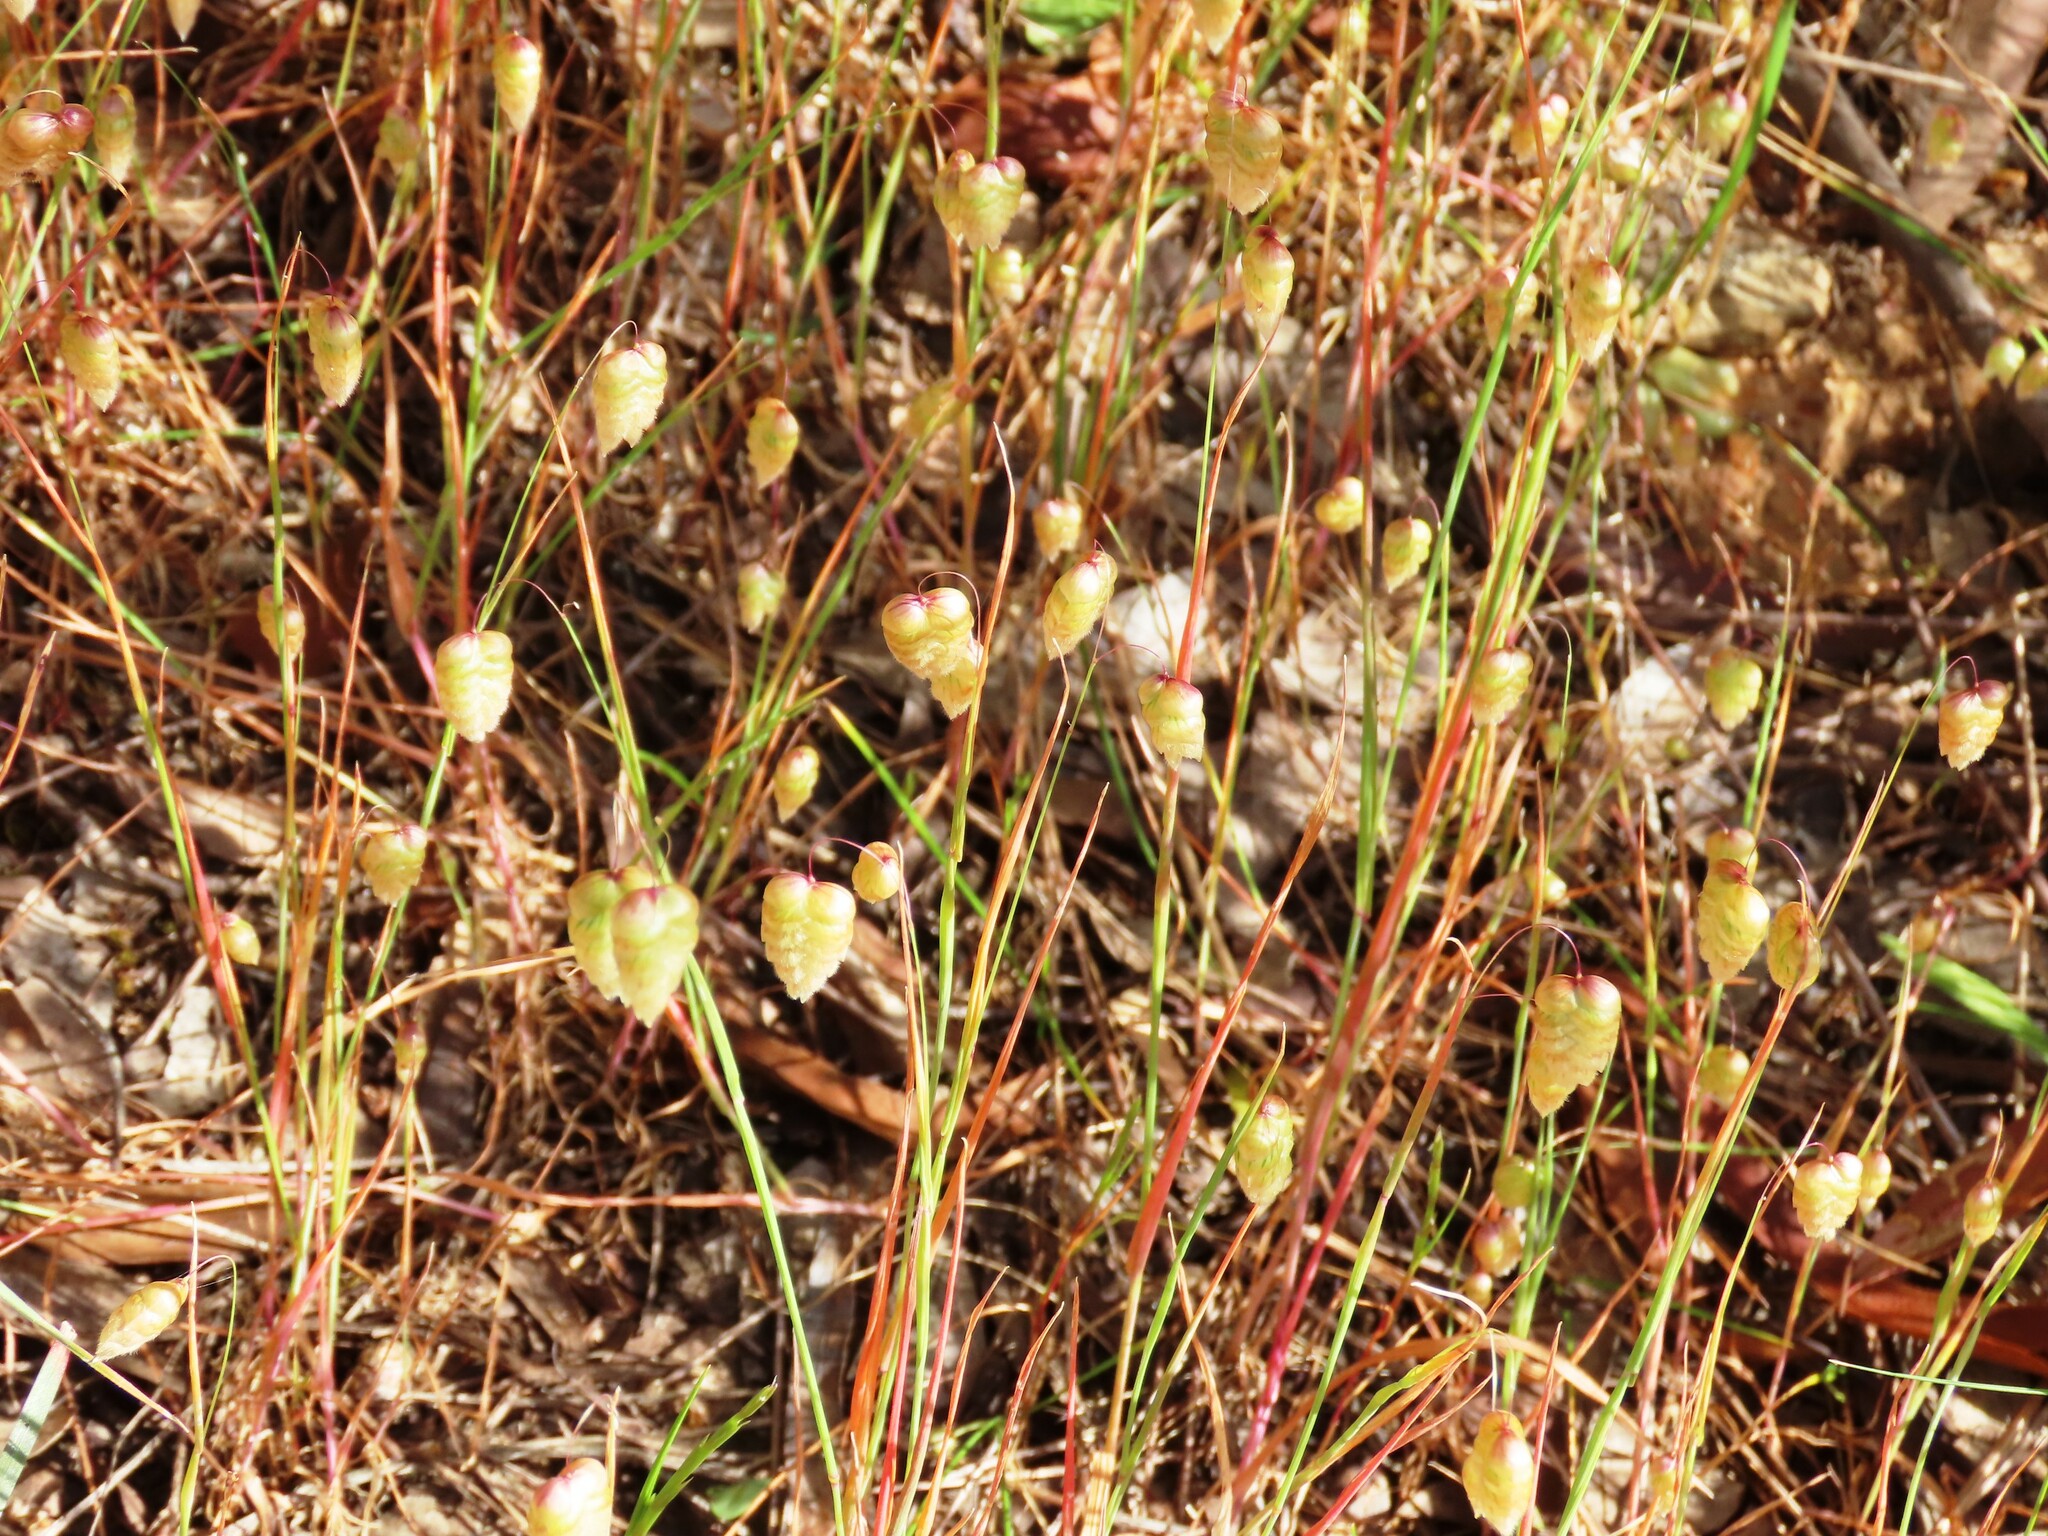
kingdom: Plantae
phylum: Tracheophyta
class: Liliopsida
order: Poales
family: Poaceae
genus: Briza
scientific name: Briza maxima
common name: Big quakinggrass
